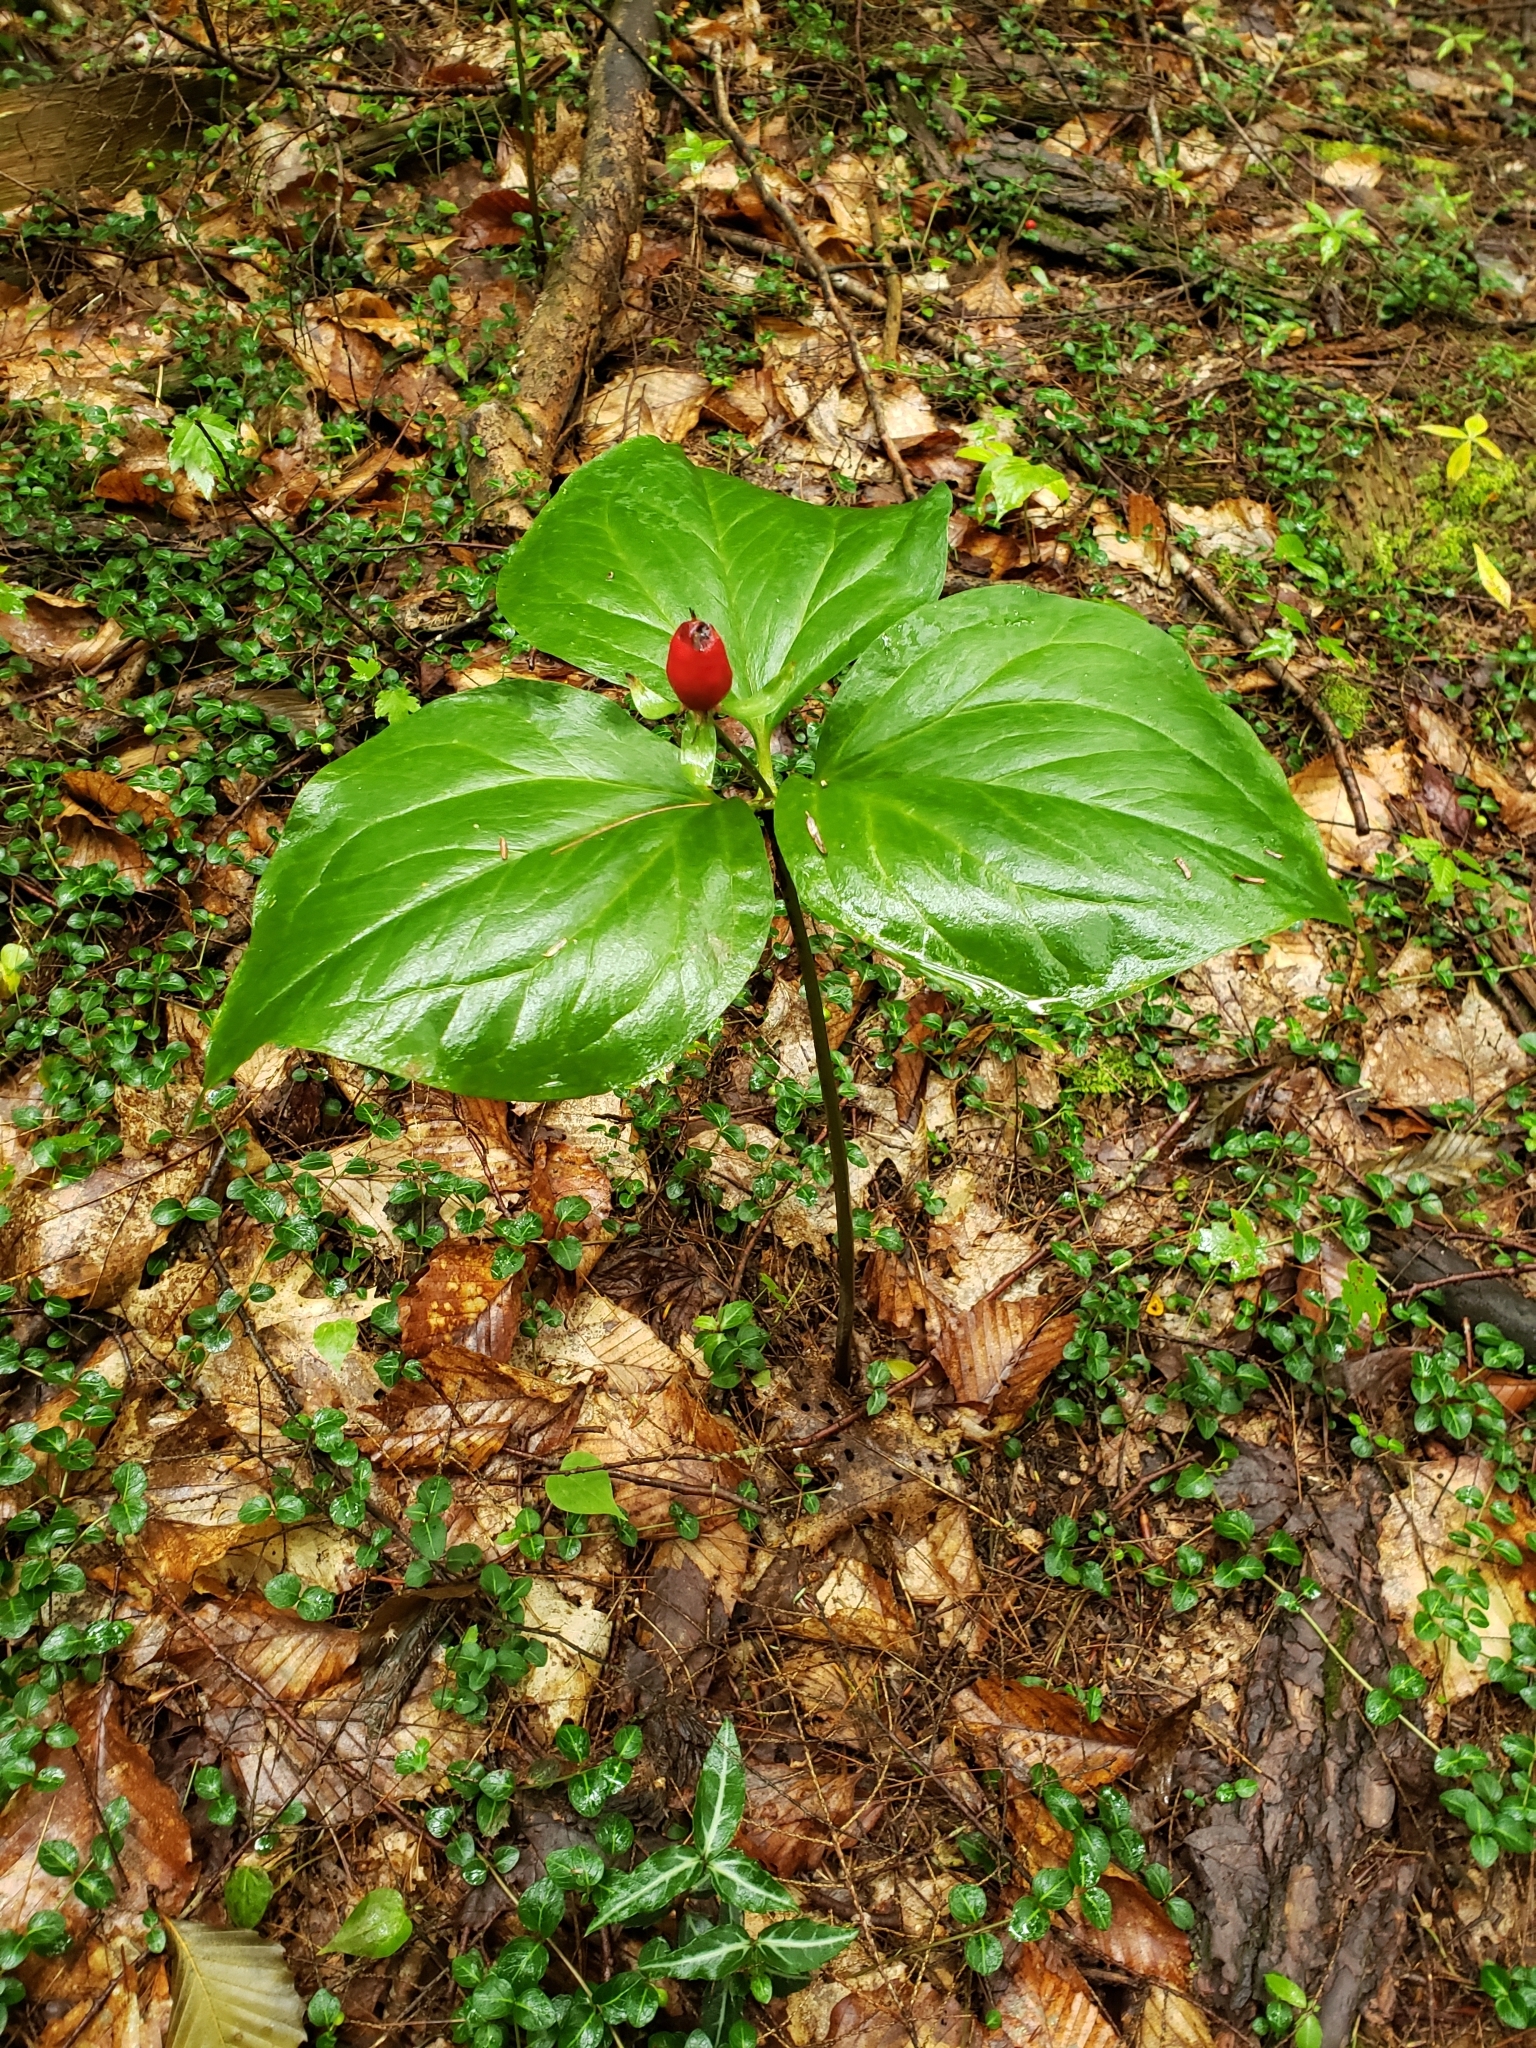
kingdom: Plantae
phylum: Tracheophyta
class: Liliopsida
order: Liliales
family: Melanthiaceae
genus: Trillium
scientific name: Trillium undulatum
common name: Paint trillium
